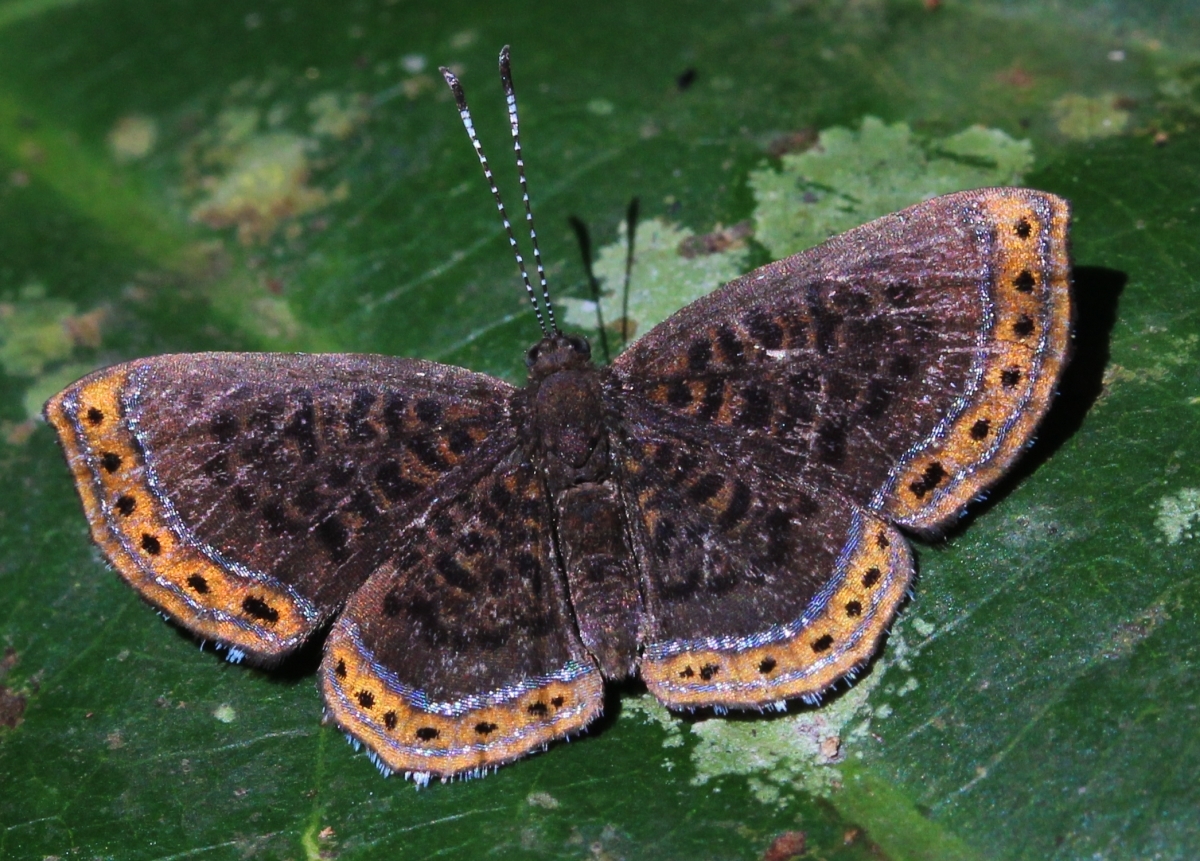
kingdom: Animalia
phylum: Arthropoda
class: Insecta
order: Lepidoptera
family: Riodinidae
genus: Detritivora
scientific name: Detritivora
